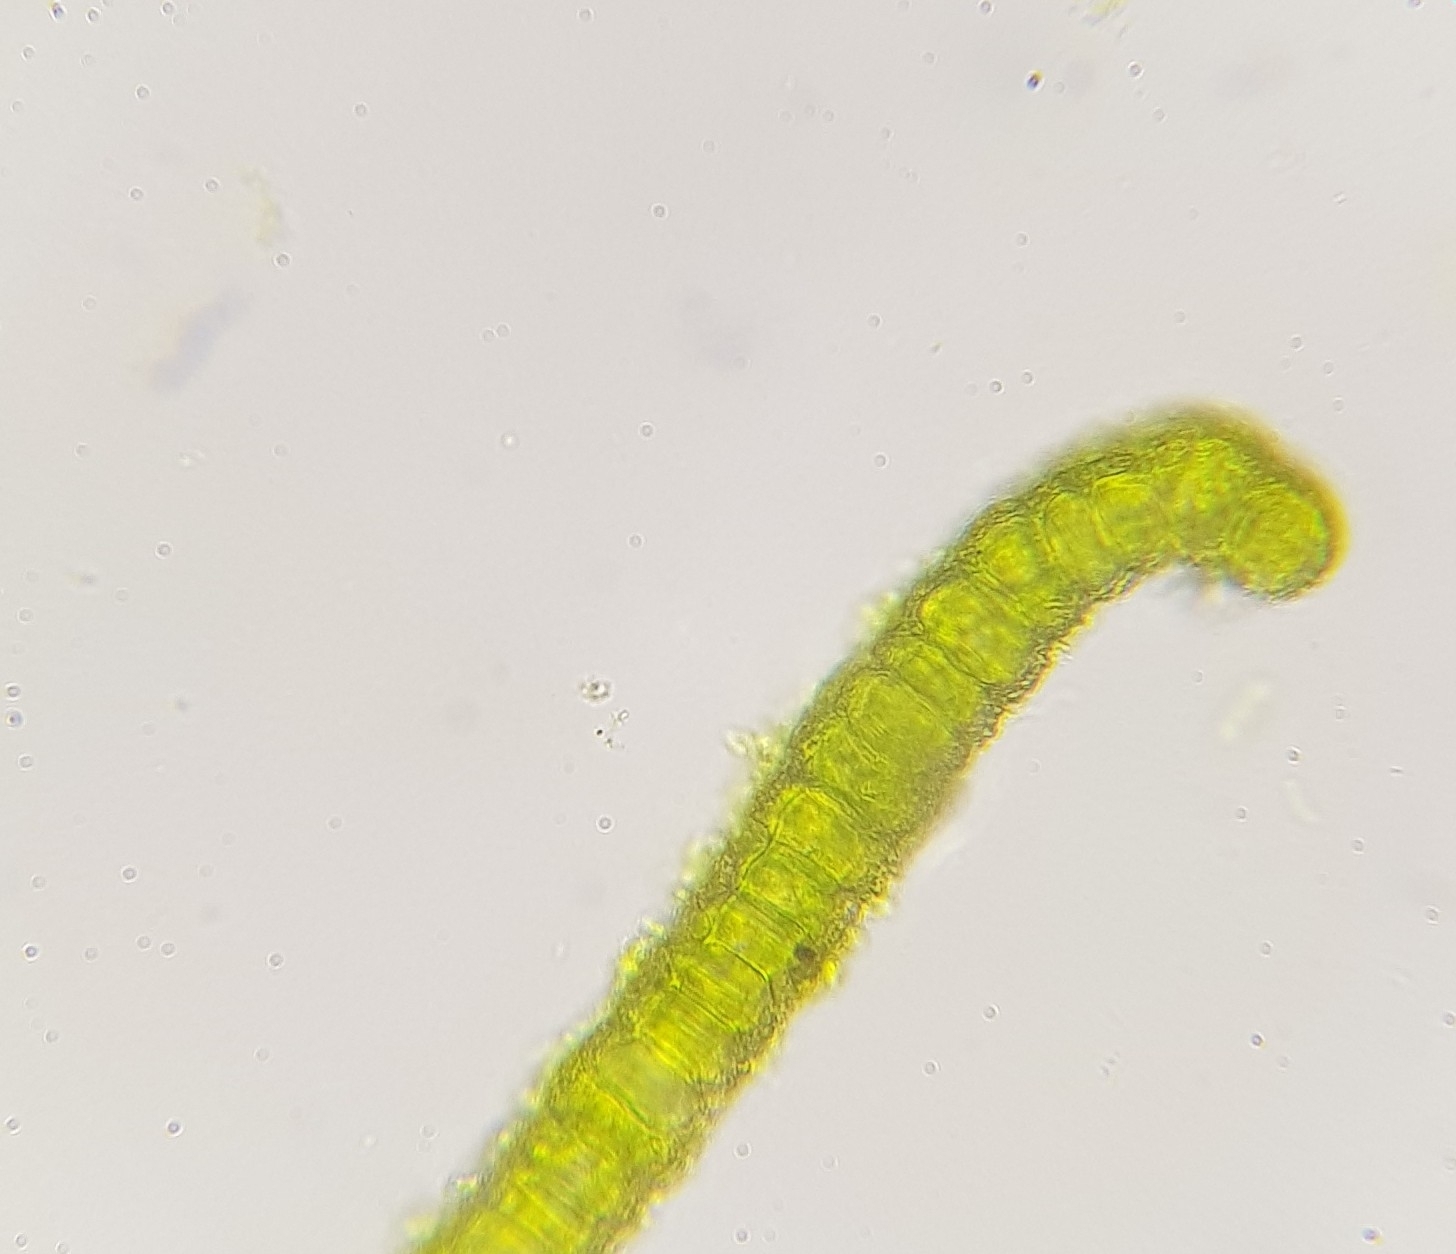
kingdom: Plantae
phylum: Bryophyta
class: Bryopsida
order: Pottiales
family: Pottiaceae
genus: Syntrichia
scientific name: Syntrichia montana
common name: Intermediate screw-moss
